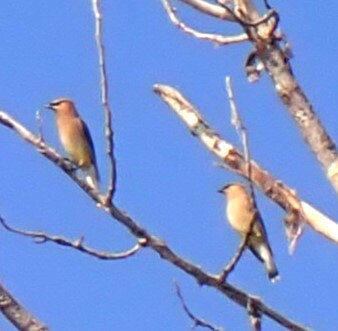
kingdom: Animalia
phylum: Chordata
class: Aves
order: Passeriformes
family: Bombycillidae
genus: Bombycilla
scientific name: Bombycilla cedrorum
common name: Cedar waxwing
